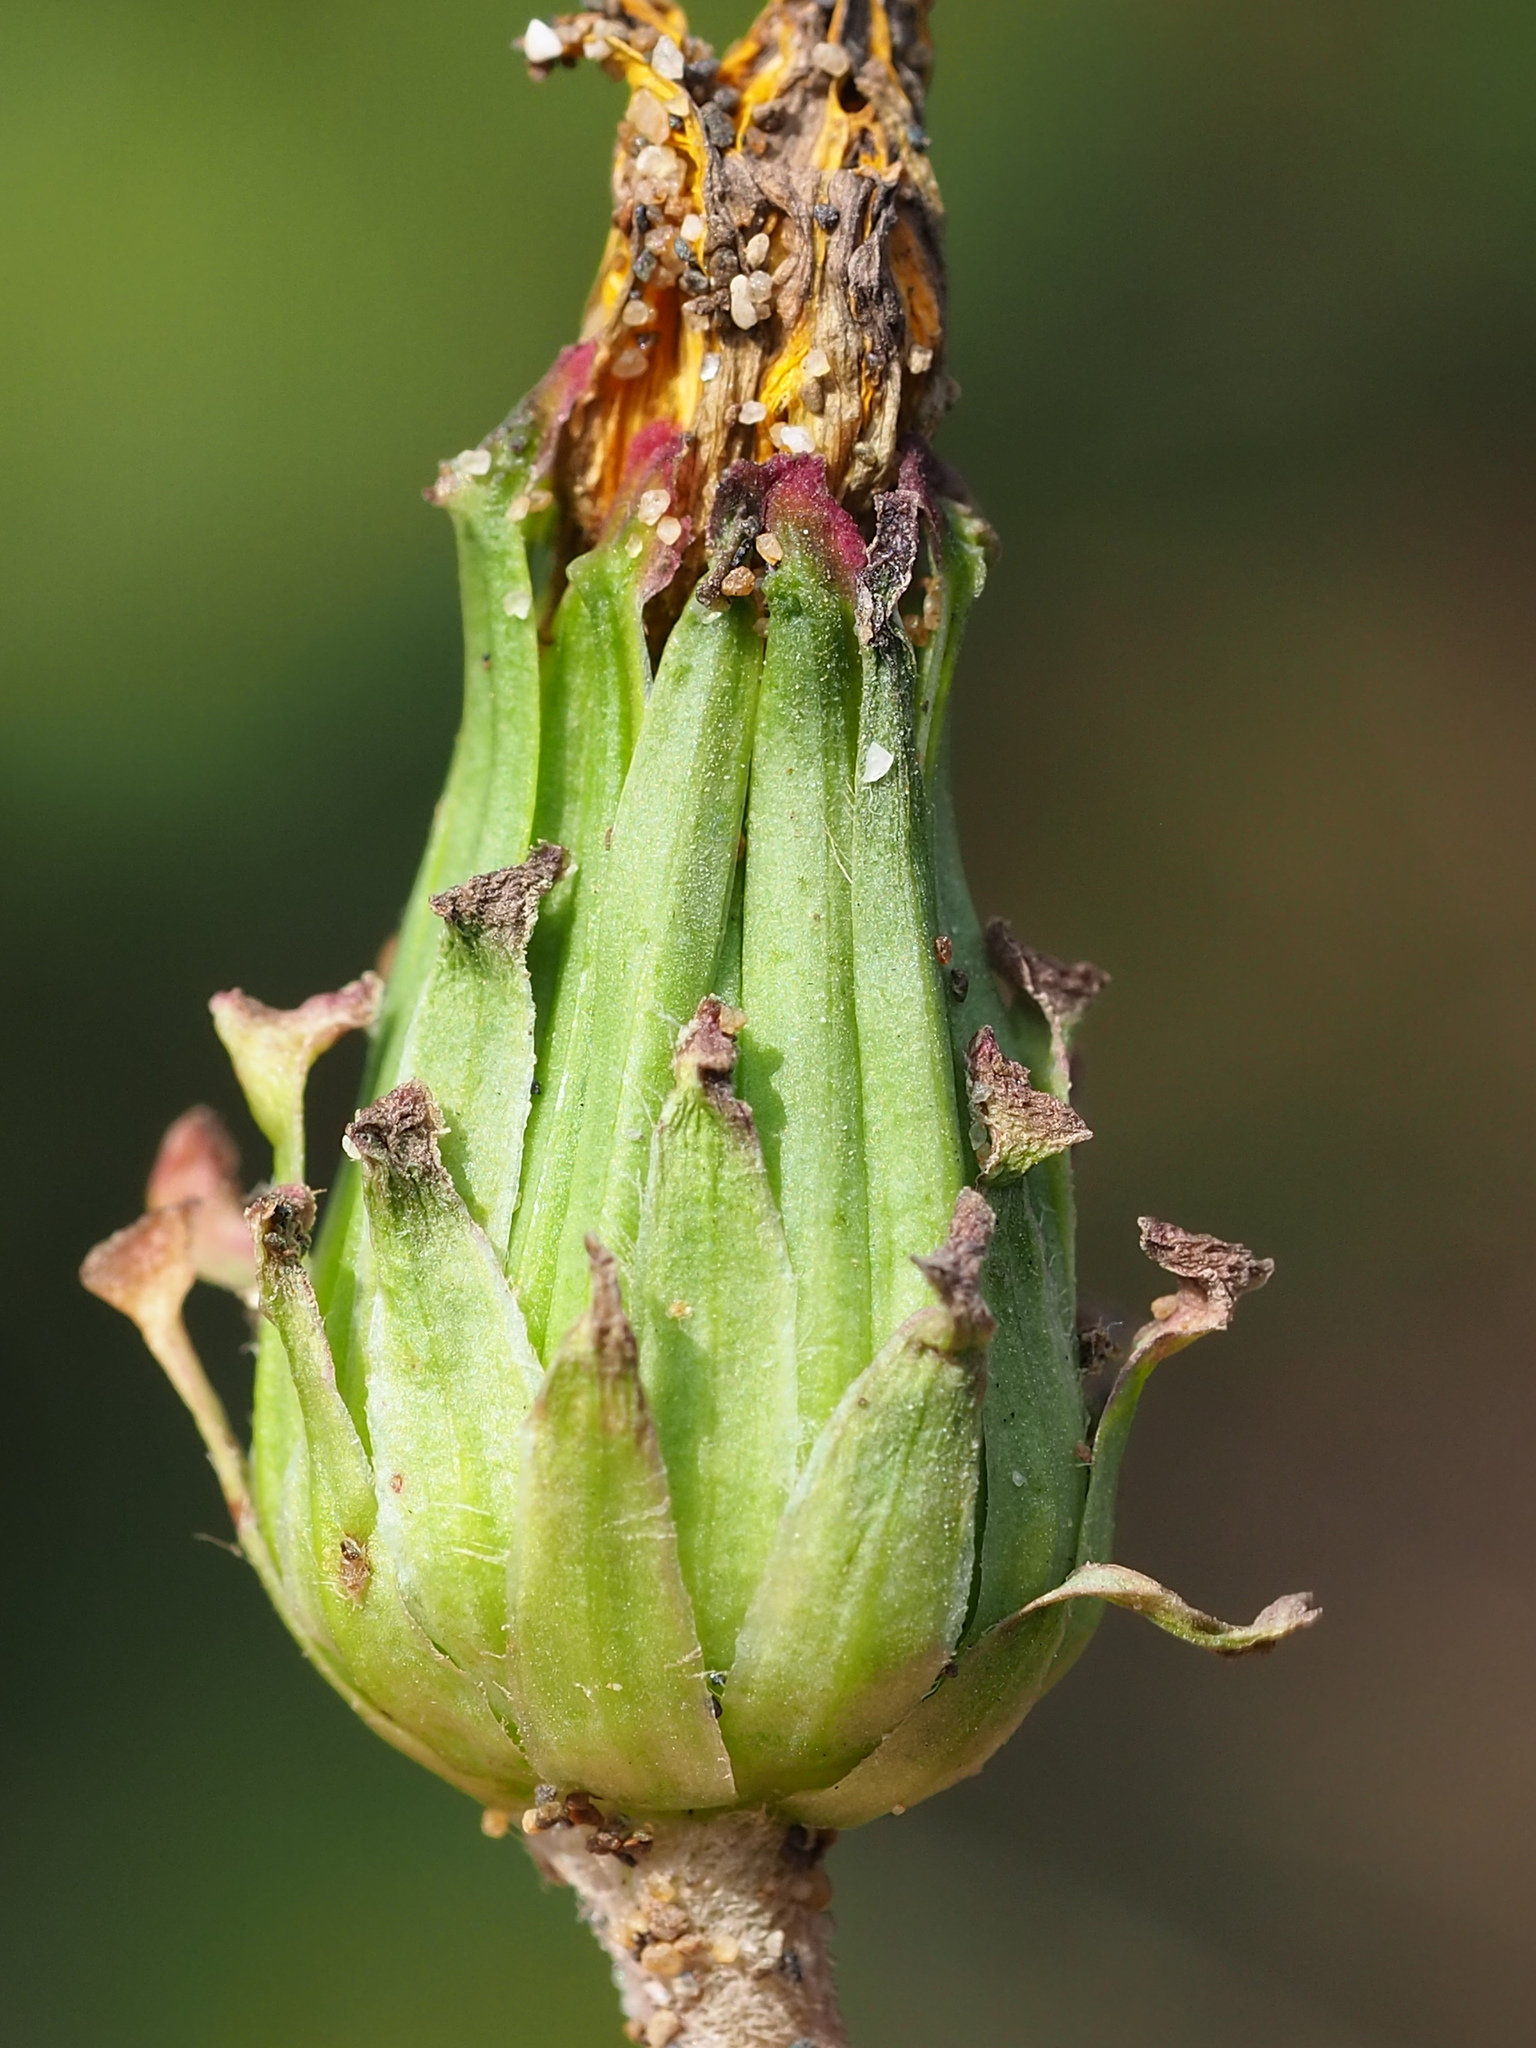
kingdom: Plantae
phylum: Tracheophyta
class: Magnoliopsida
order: Asterales
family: Asteraceae
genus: Taraxacum
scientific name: Taraxacum formosanum
